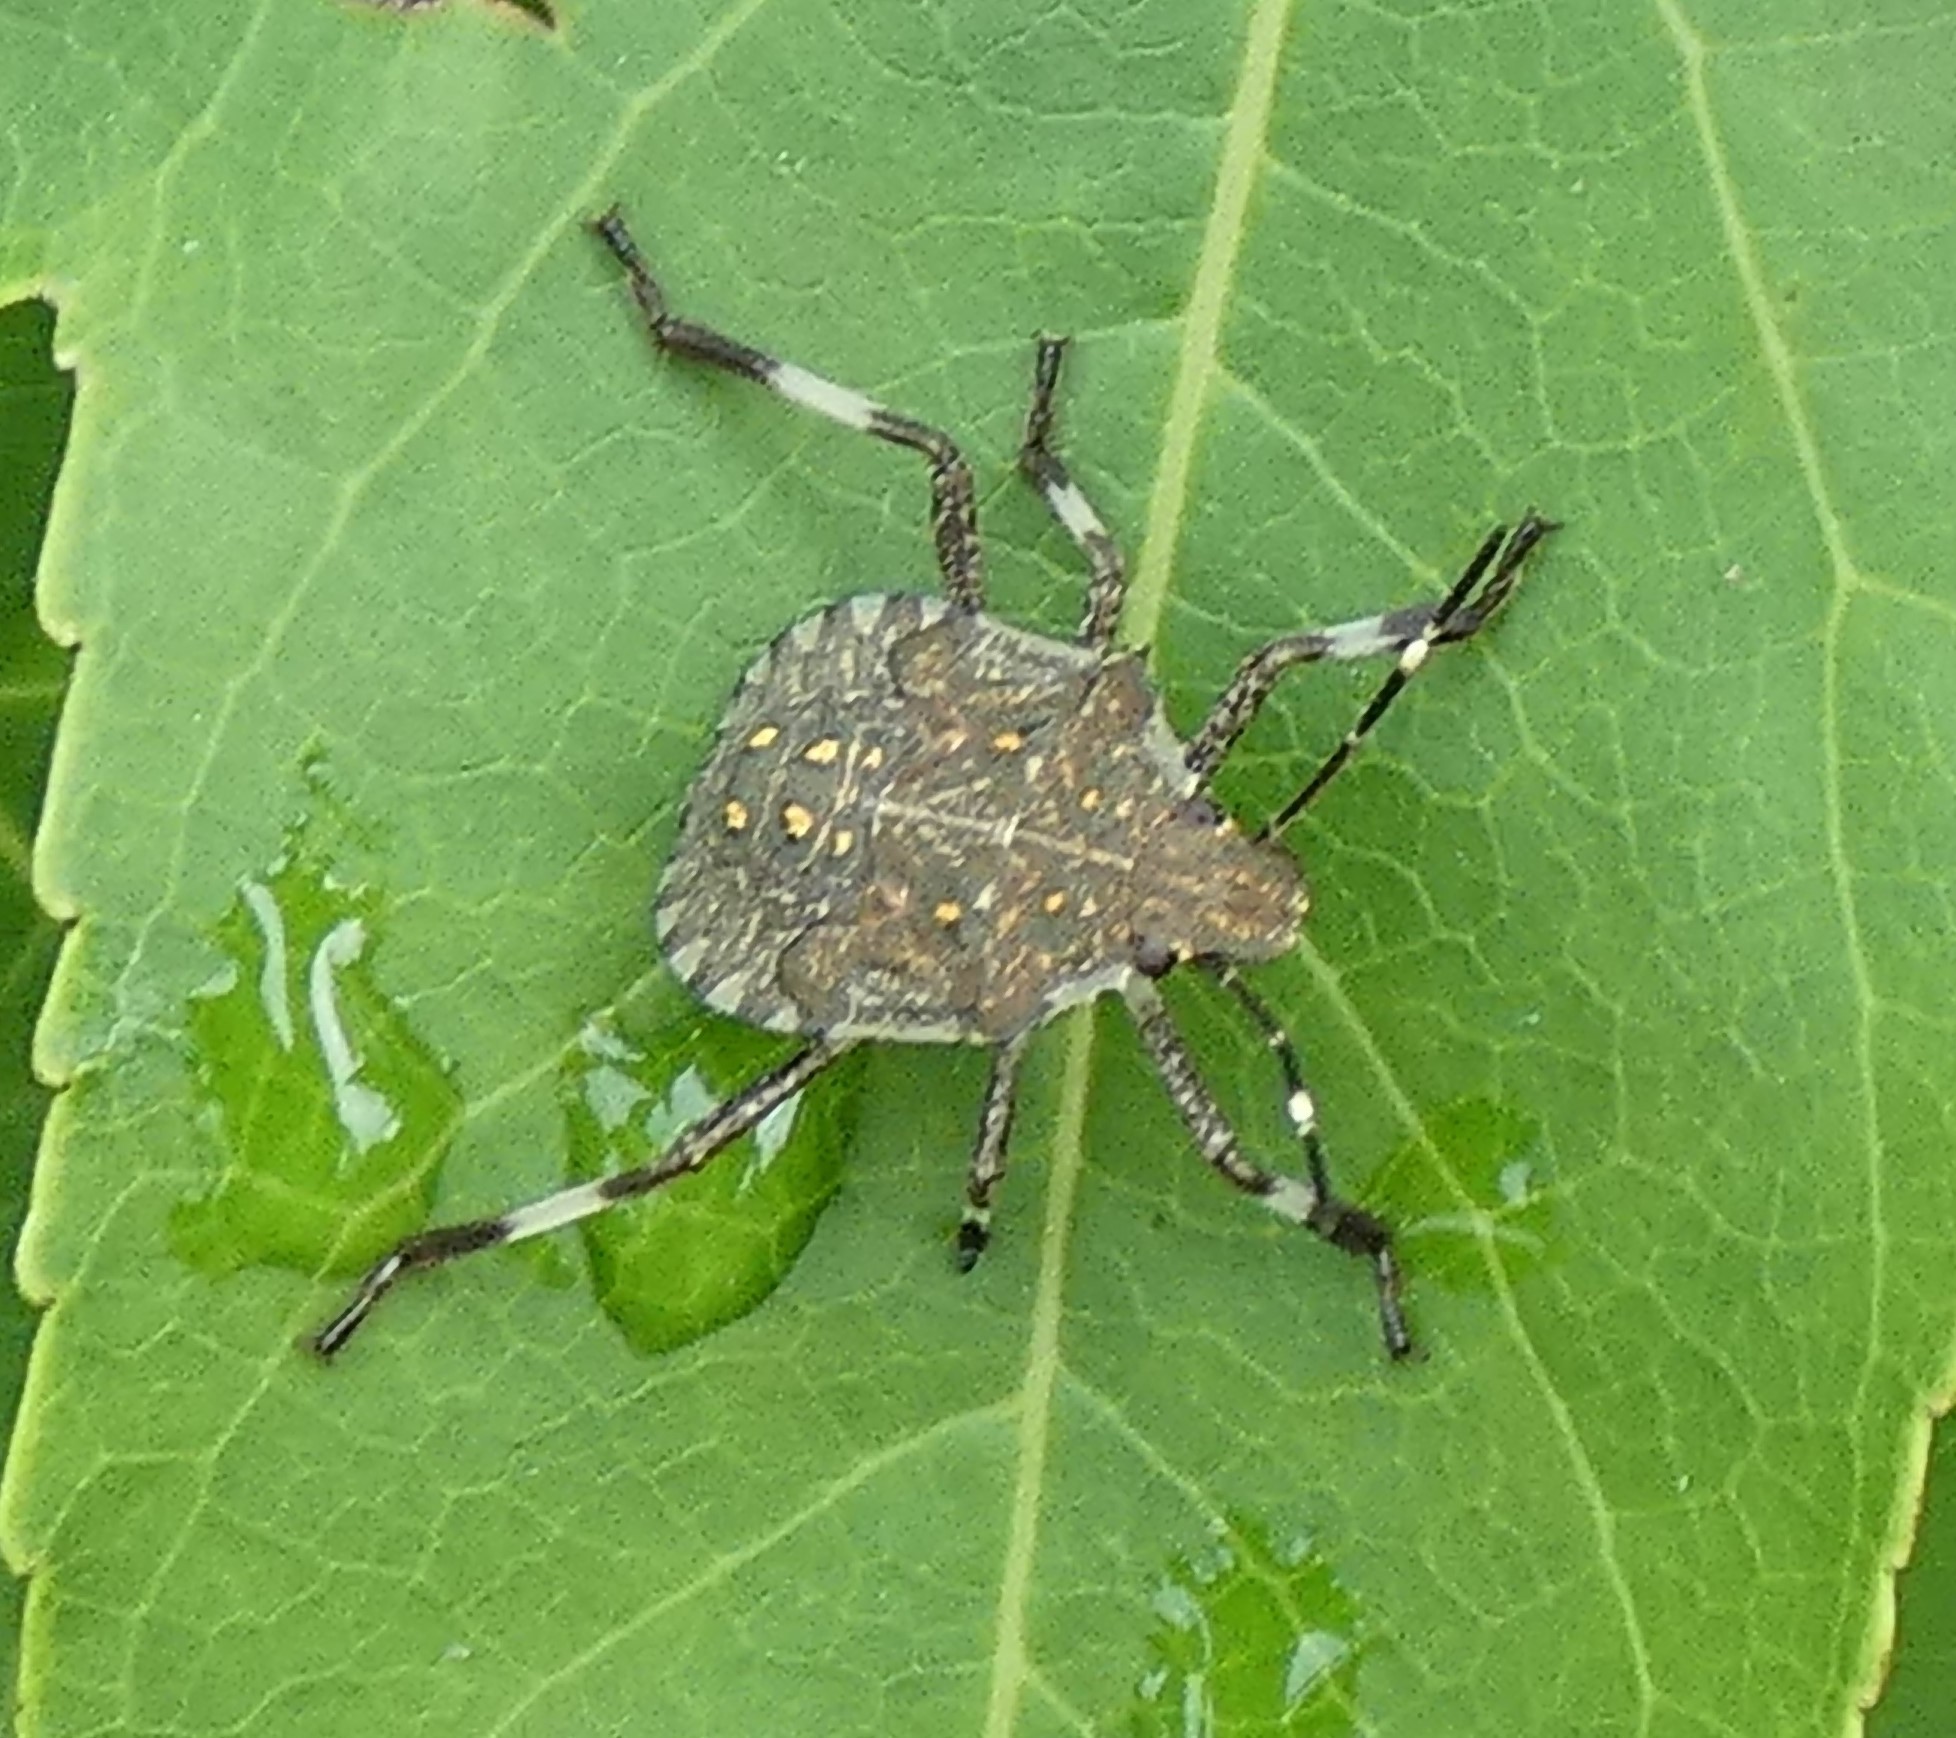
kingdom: Animalia
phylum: Arthropoda
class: Insecta
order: Hemiptera
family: Pentatomidae
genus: Halyomorpha
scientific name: Halyomorpha halys
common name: Brown marmorated stink bug
